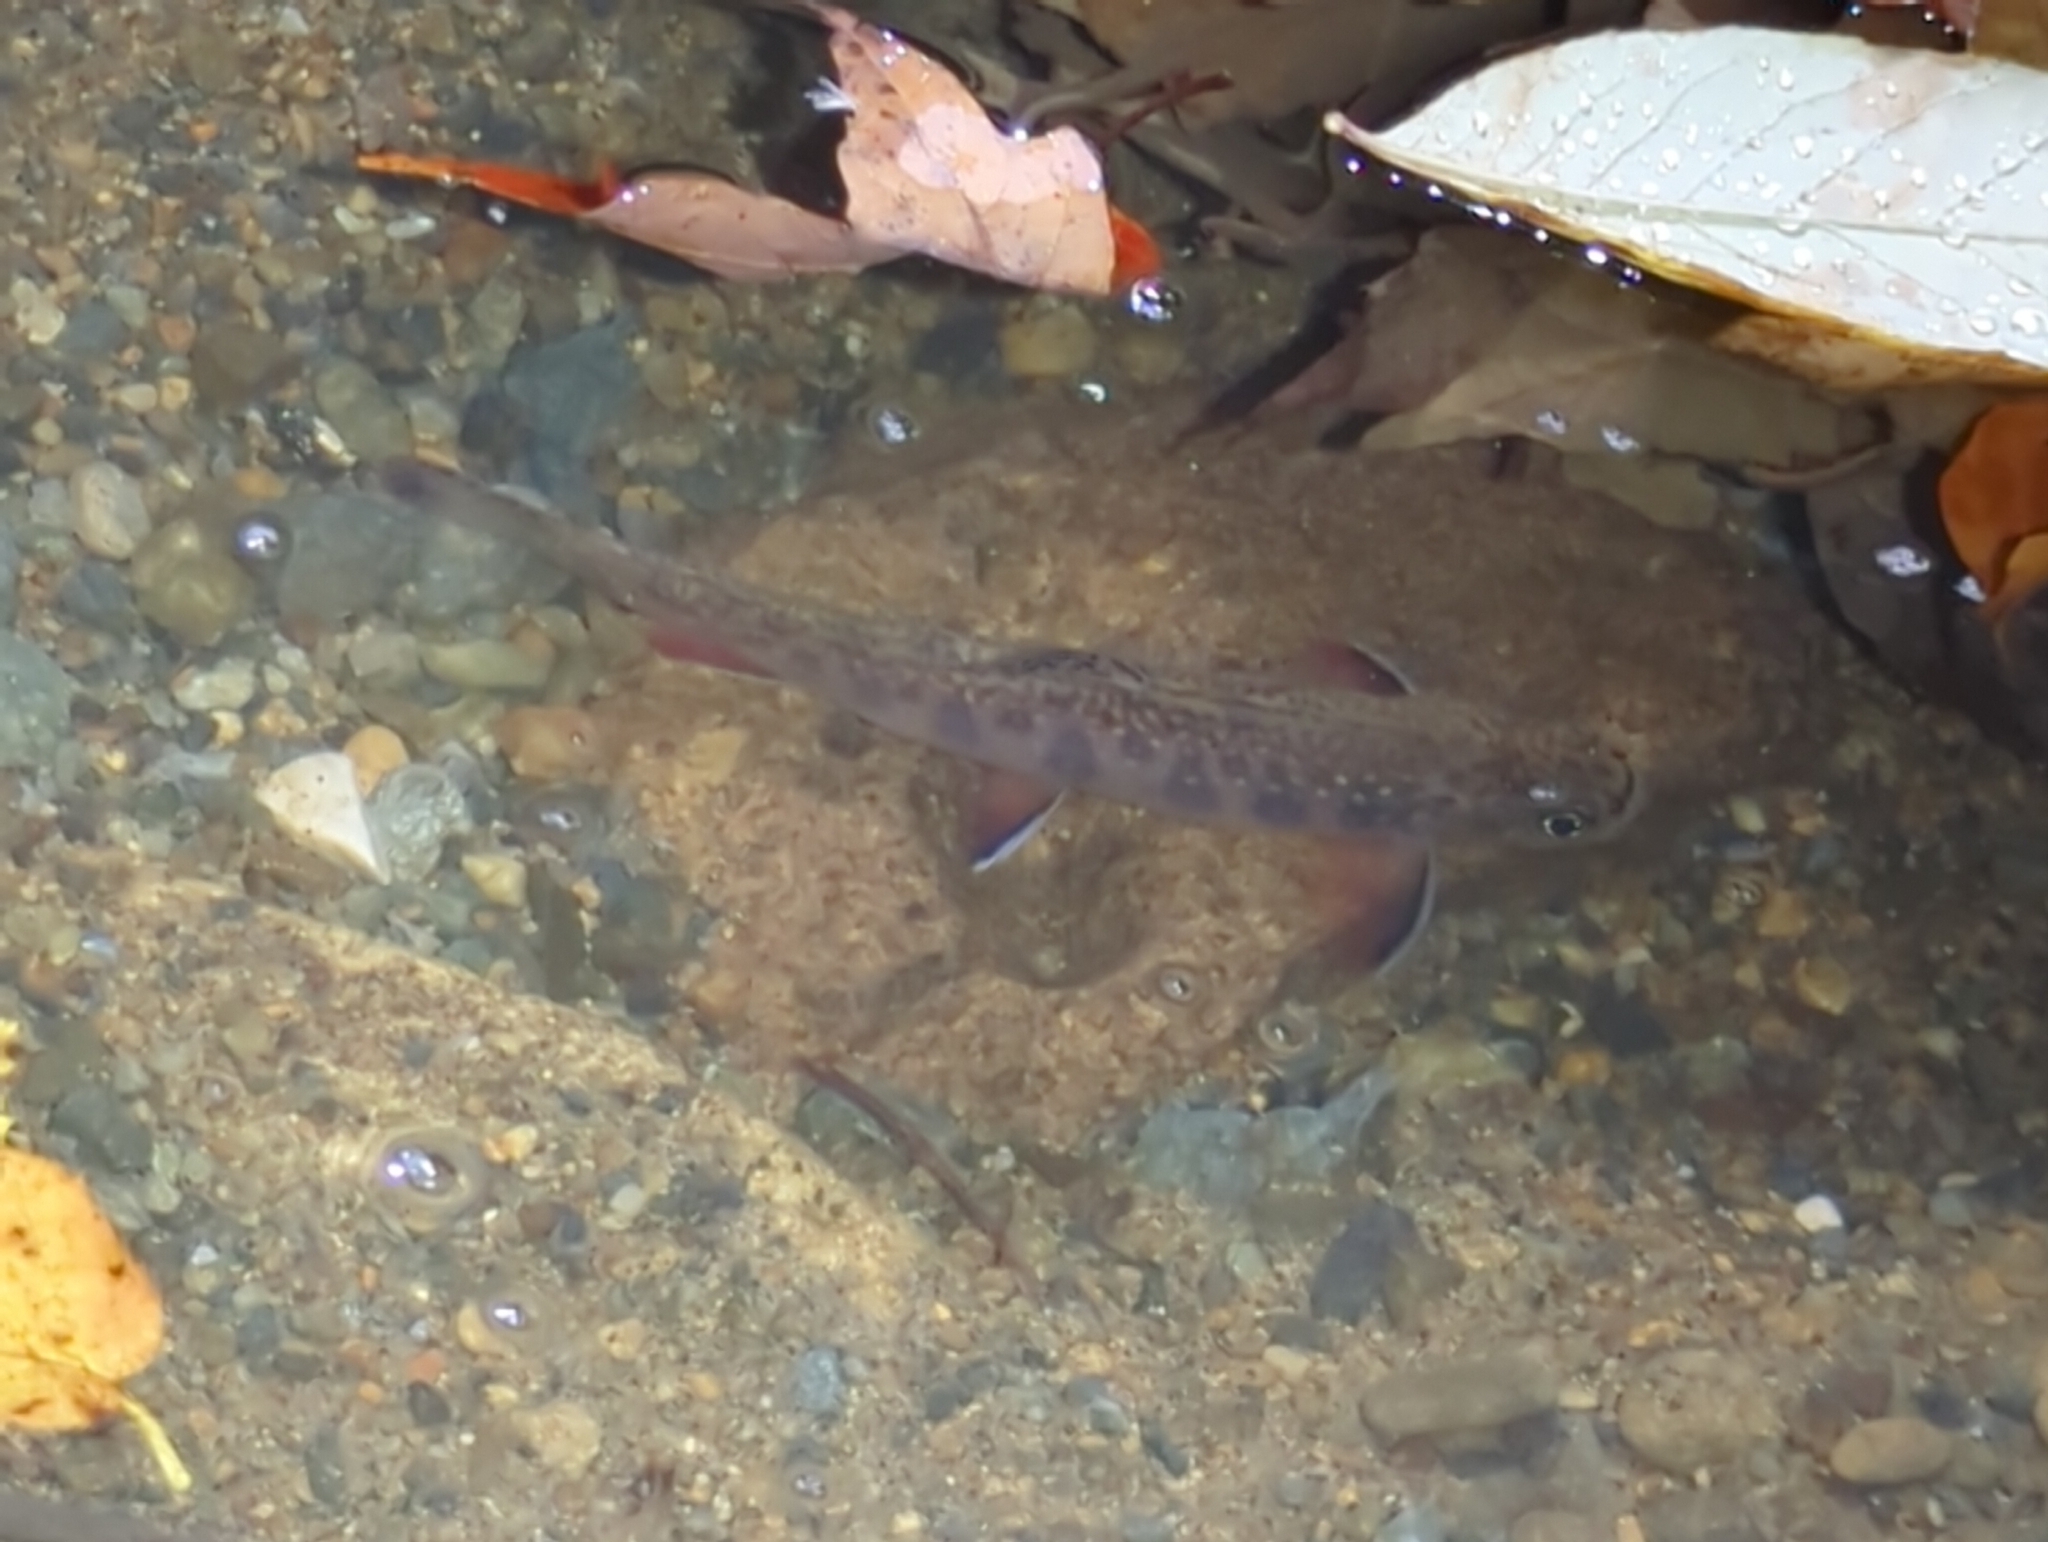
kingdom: Animalia
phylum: Chordata
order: Salmoniformes
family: Salmonidae
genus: Salvelinus
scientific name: Salvelinus fontinalis
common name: Brook trout
